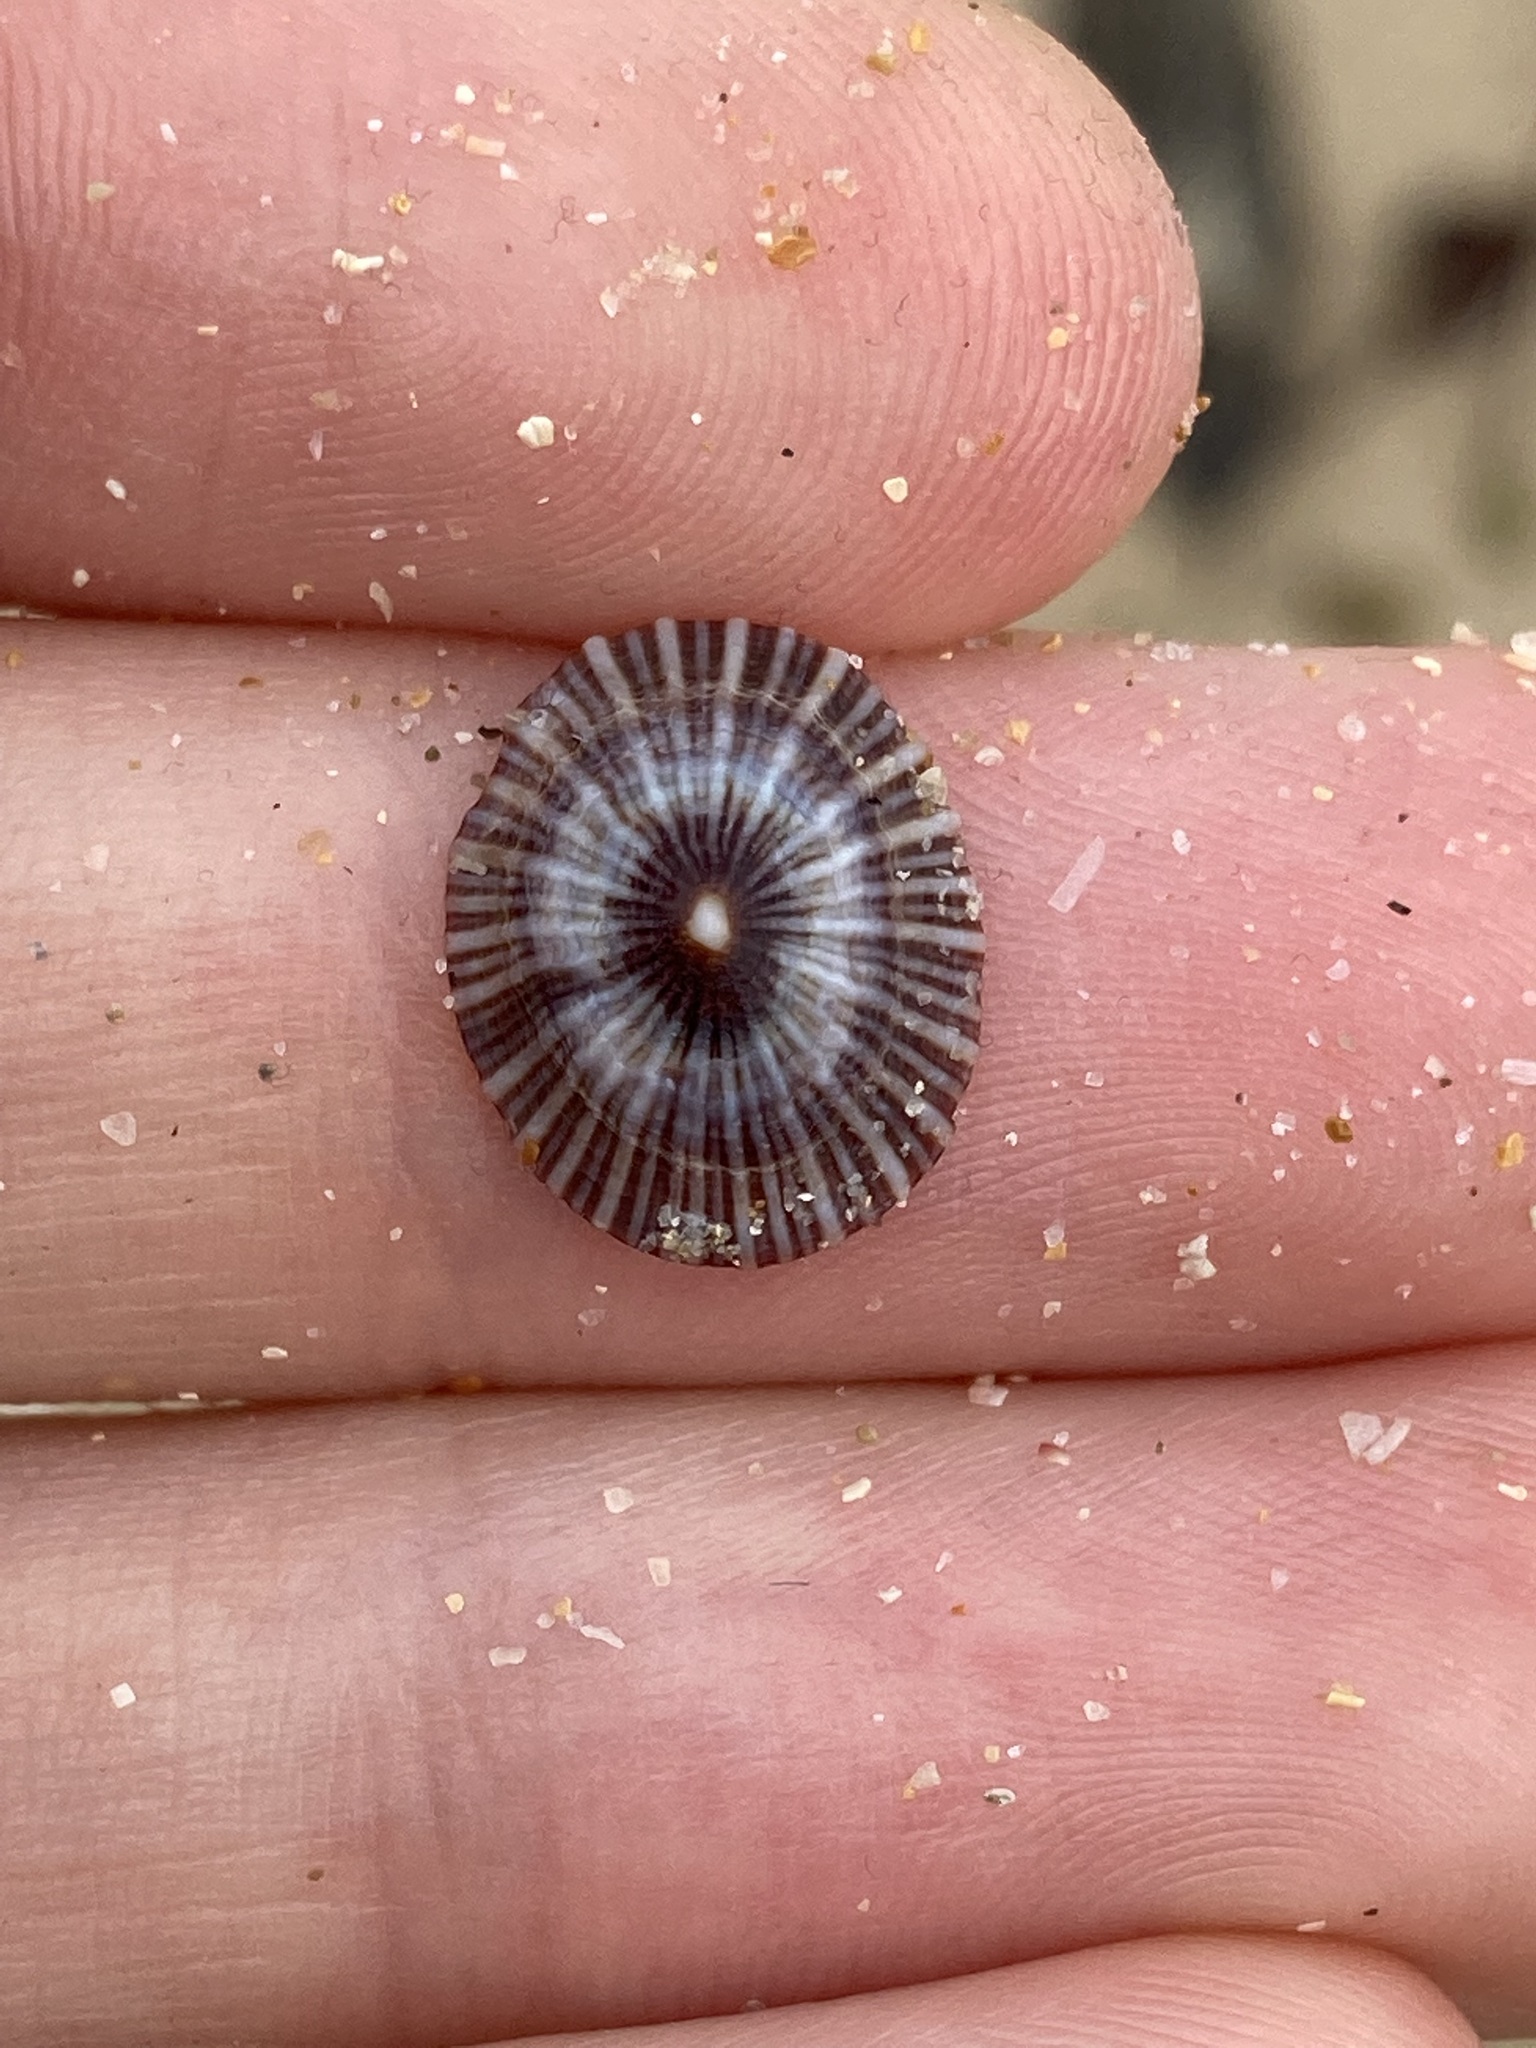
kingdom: Animalia
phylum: Mollusca
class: Gastropoda
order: Siphonariida
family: Siphonariidae
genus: Siphonaria
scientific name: Siphonaria funiculata
